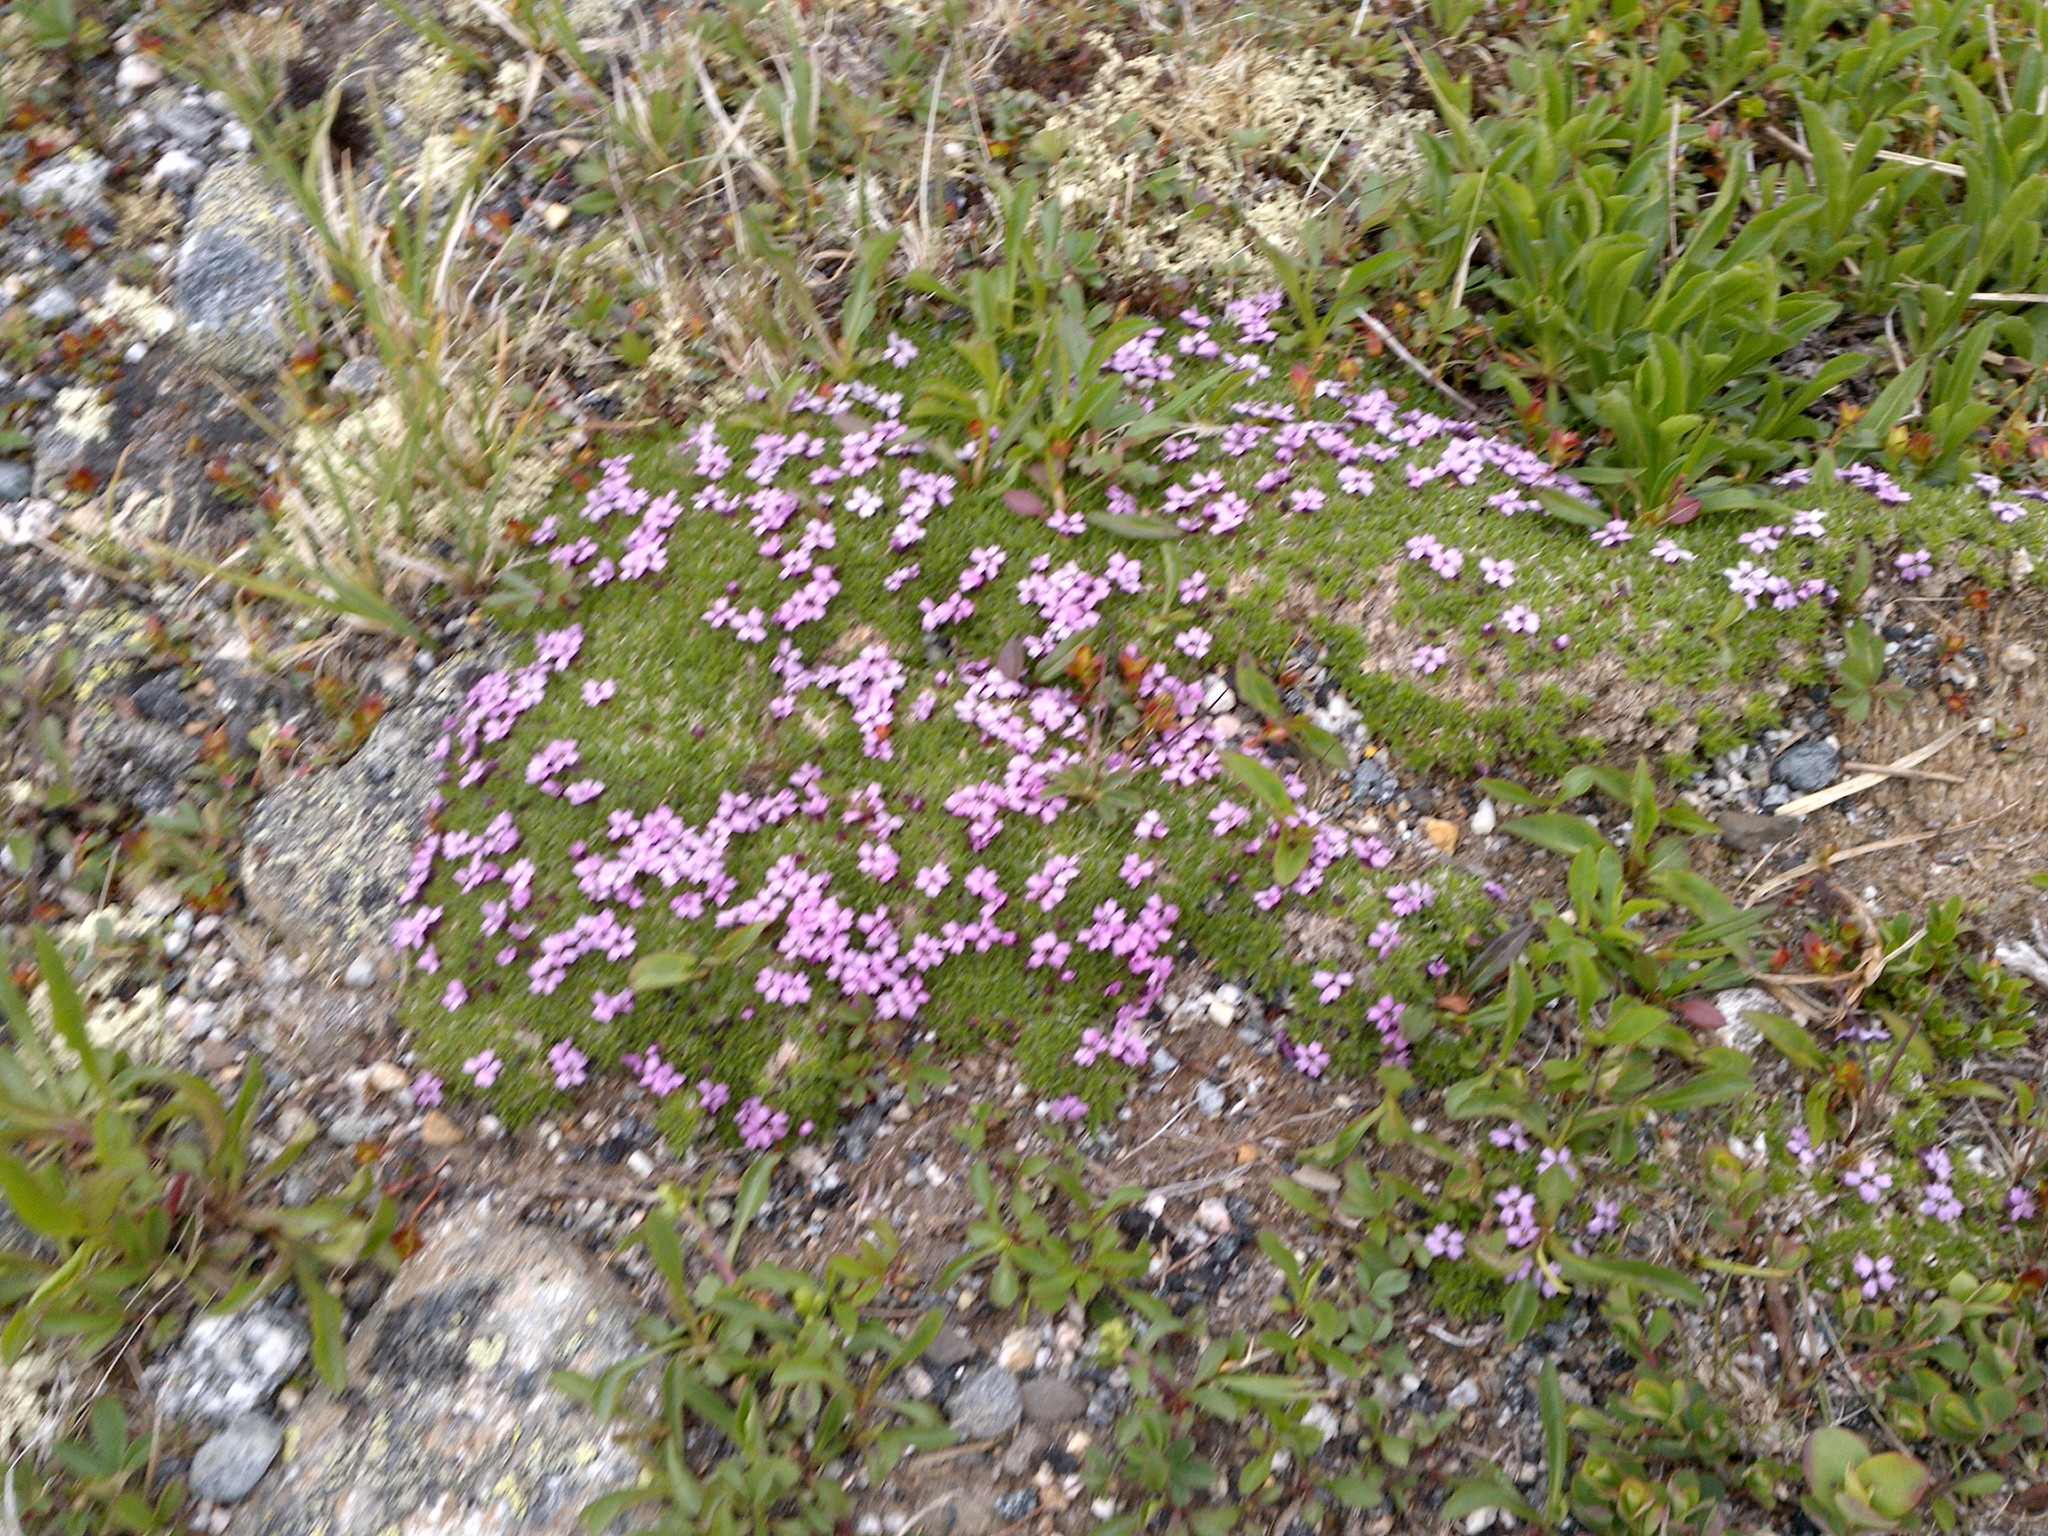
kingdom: Plantae
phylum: Tracheophyta
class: Magnoliopsida
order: Caryophyllales
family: Caryophyllaceae
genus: Silene
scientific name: Silene acaulis
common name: Moss campion
